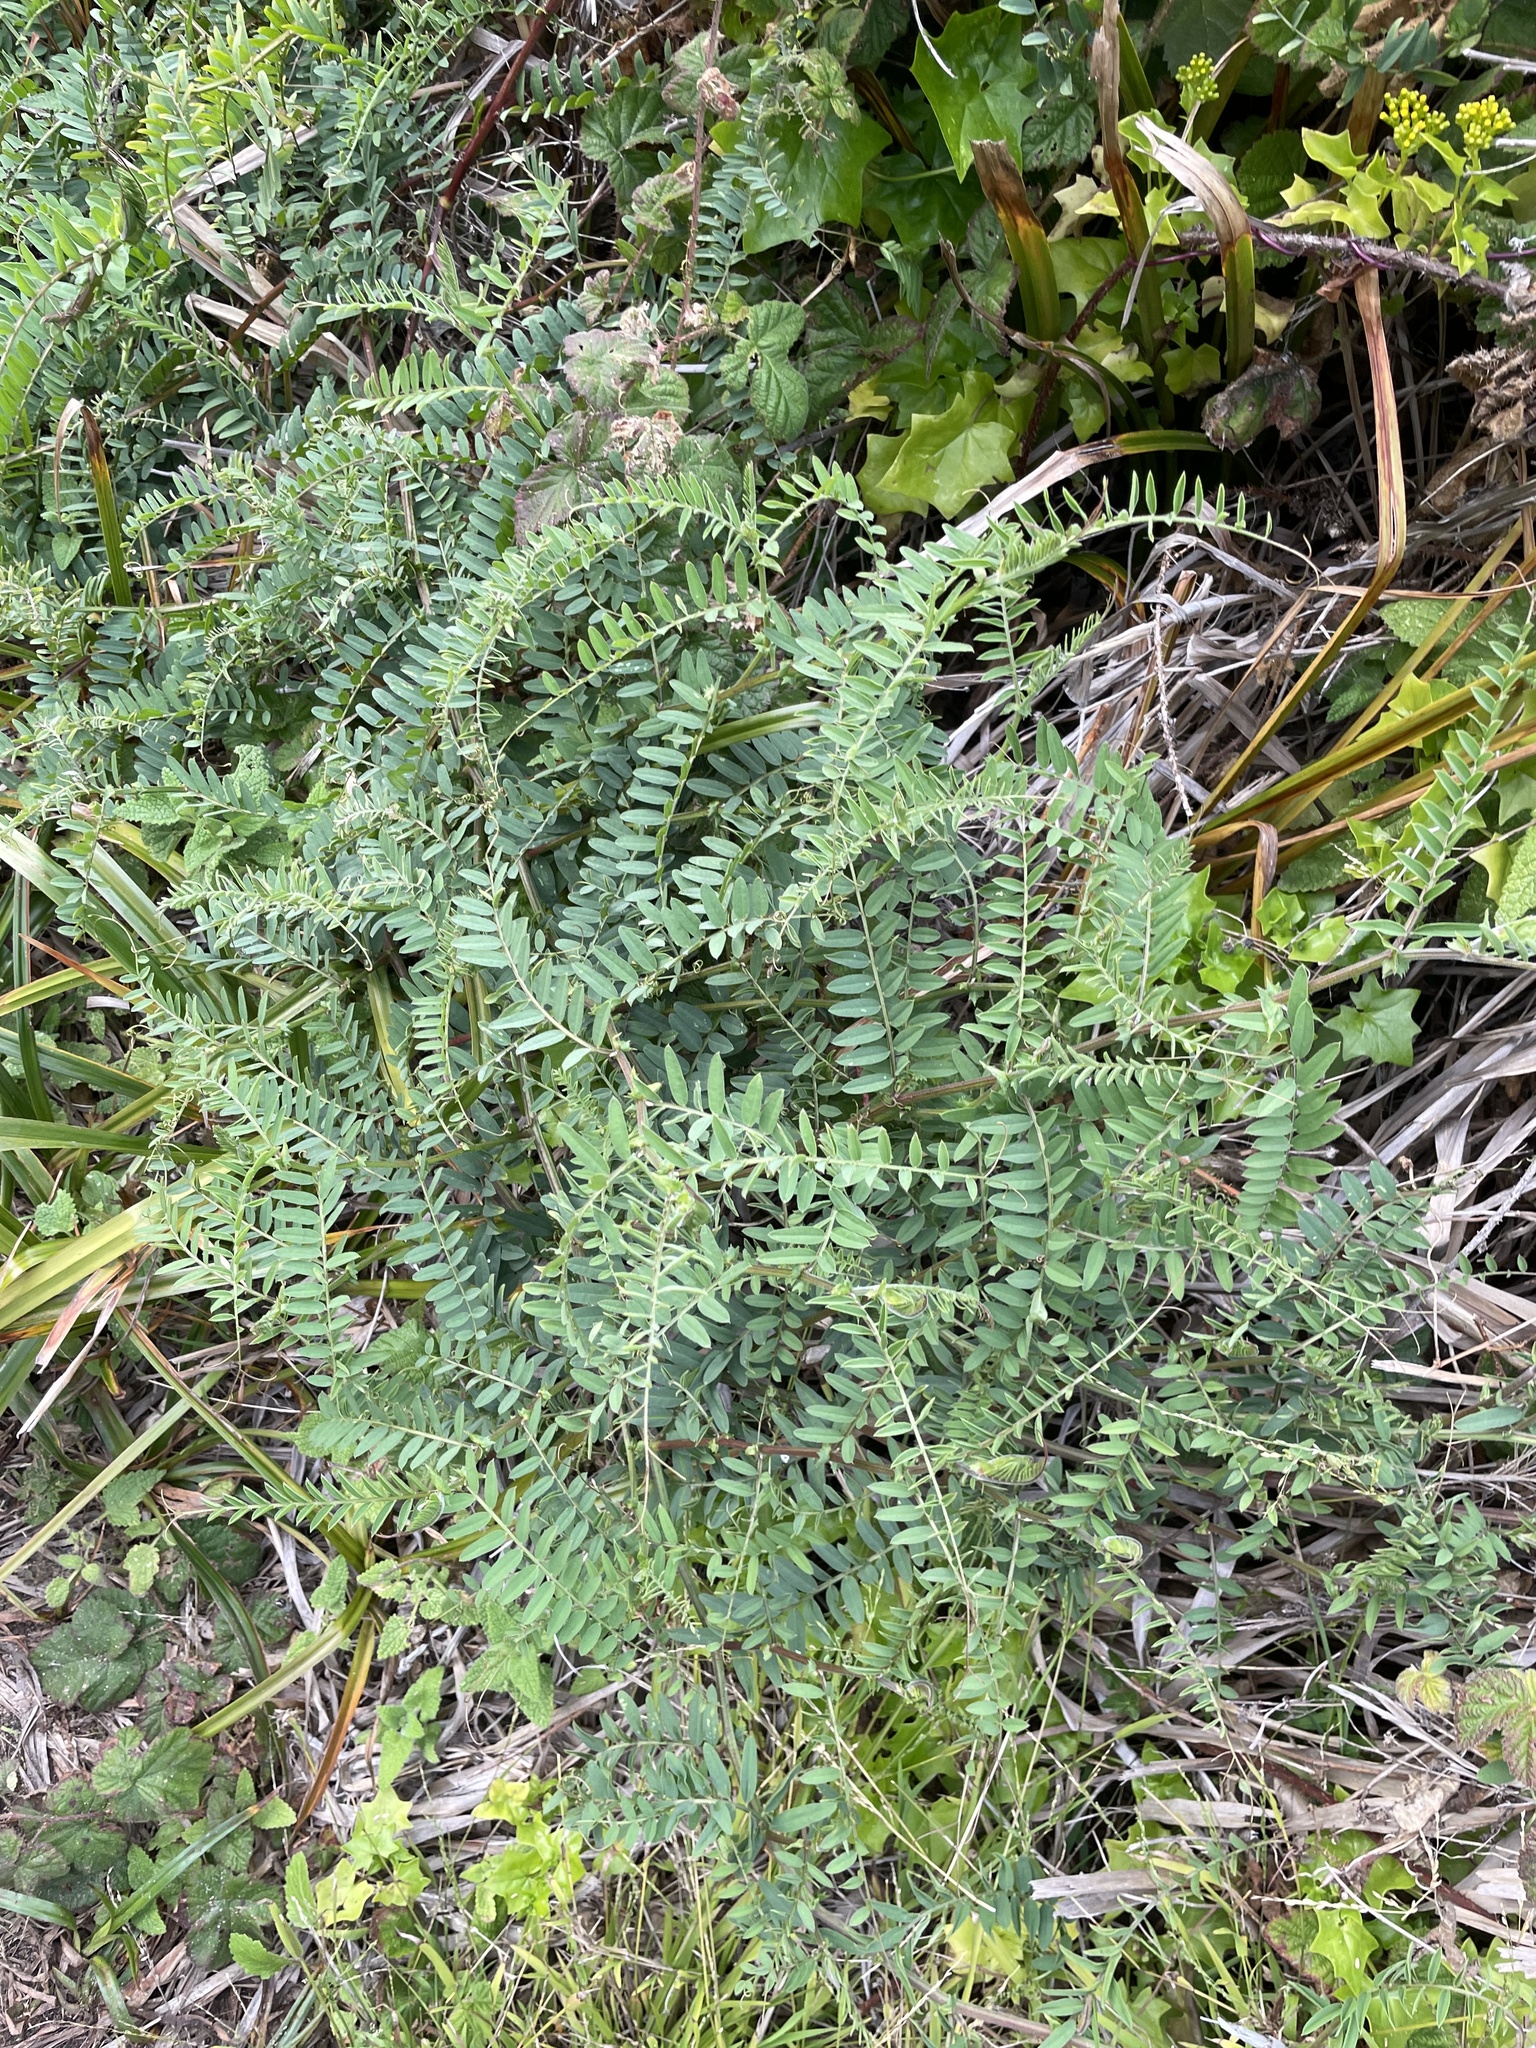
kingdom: Plantae
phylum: Tracheophyta
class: Magnoliopsida
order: Fabales
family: Fabaceae
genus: Vicia
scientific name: Vicia
